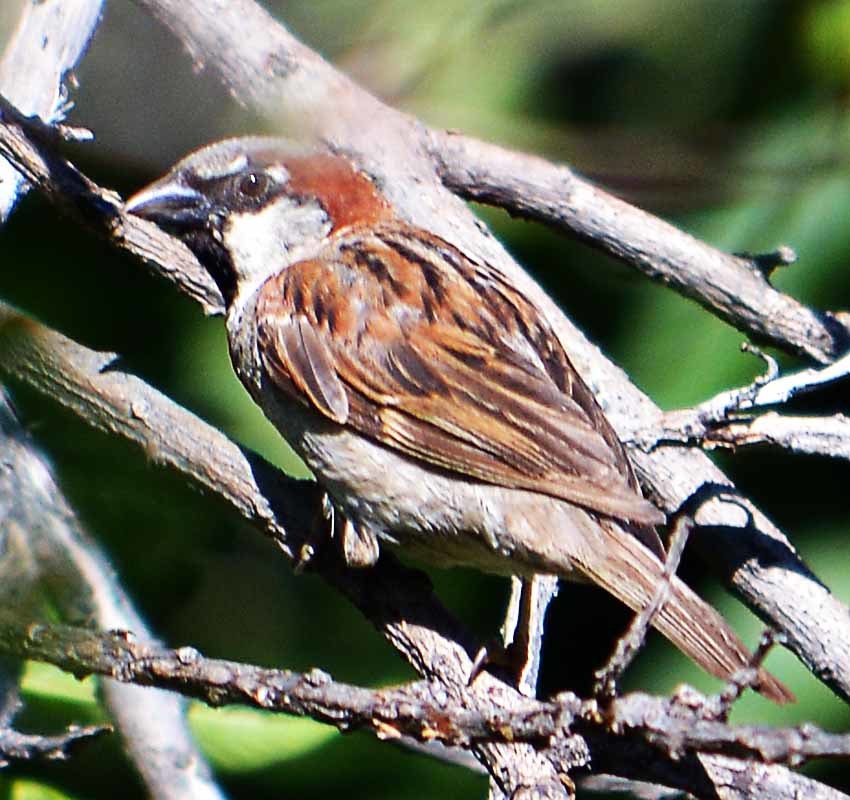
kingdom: Animalia
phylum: Chordata
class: Aves
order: Passeriformes
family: Passeridae
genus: Passer
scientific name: Passer domesticus
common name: House sparrow
